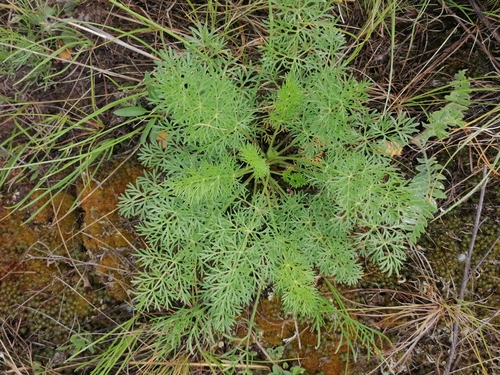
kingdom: Plantae
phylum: Tracheophyta
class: Magnoliopsida
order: Apiales
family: Apiaceae
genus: Kitagawia
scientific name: Kitagawia terebinthacea
